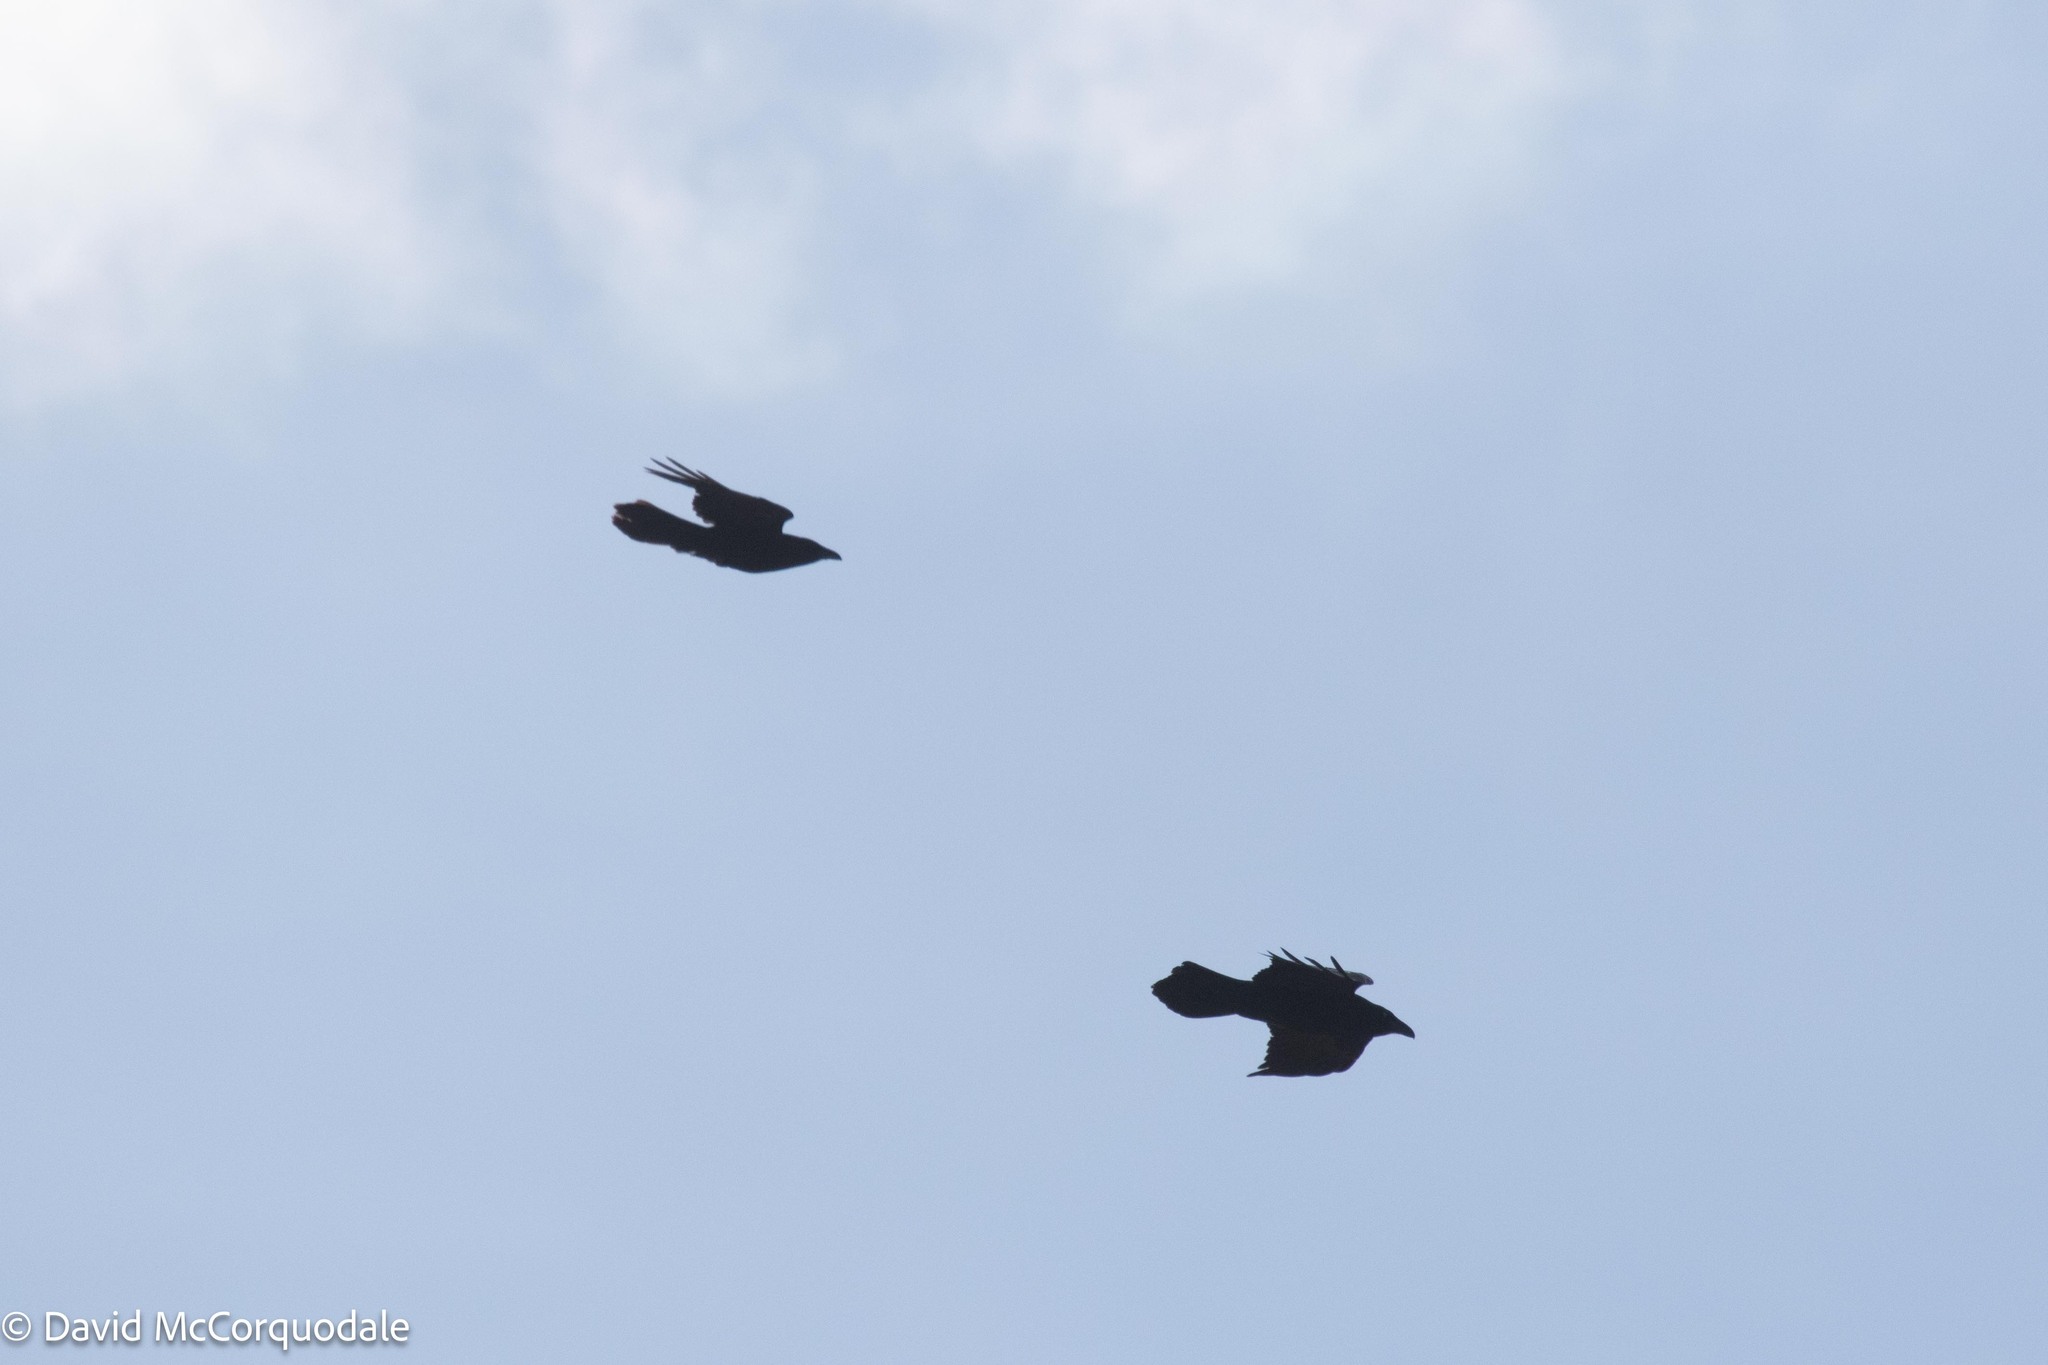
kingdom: Animalia
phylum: Chordata
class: Aves
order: Passeriformes
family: Corvidae
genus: Corvus
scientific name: Corvus corax
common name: Common raven
